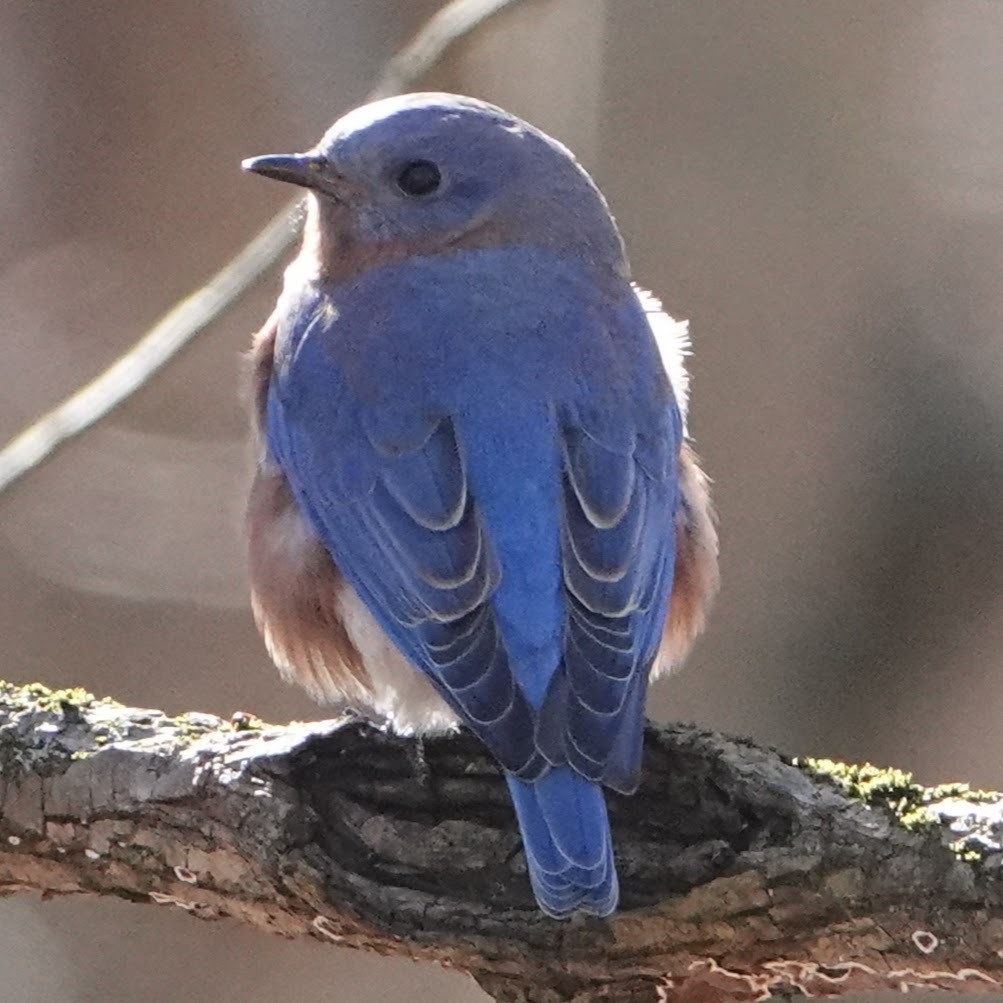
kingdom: Animalia
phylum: Chordata
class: Aves
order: Passeriformes
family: Turdidae
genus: Sialia
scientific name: Sialia sialis
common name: Eastern bluebird
